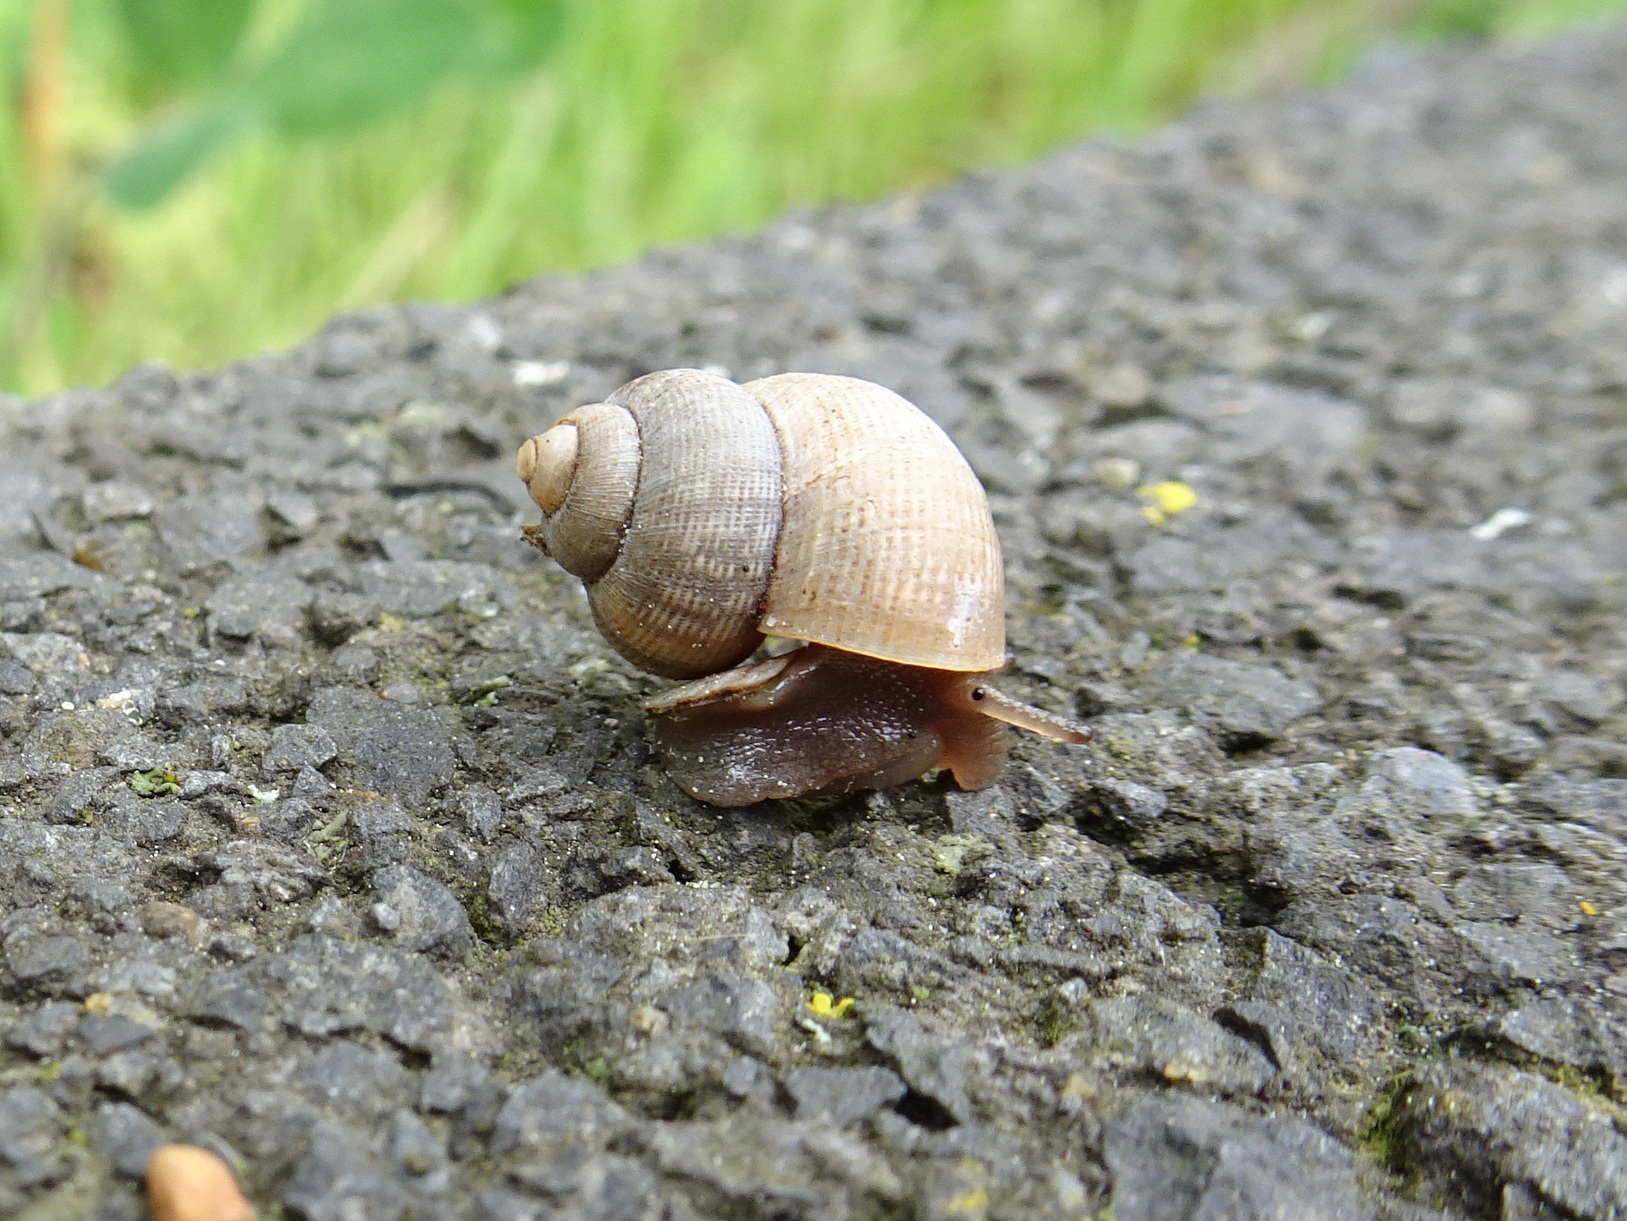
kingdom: Animalia
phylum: Mollusca
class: Gastropoda
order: Littorinimorpha
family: Pomatiidae
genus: Pomatias
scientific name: Pomatias elegans
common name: Red-mouthed snail
